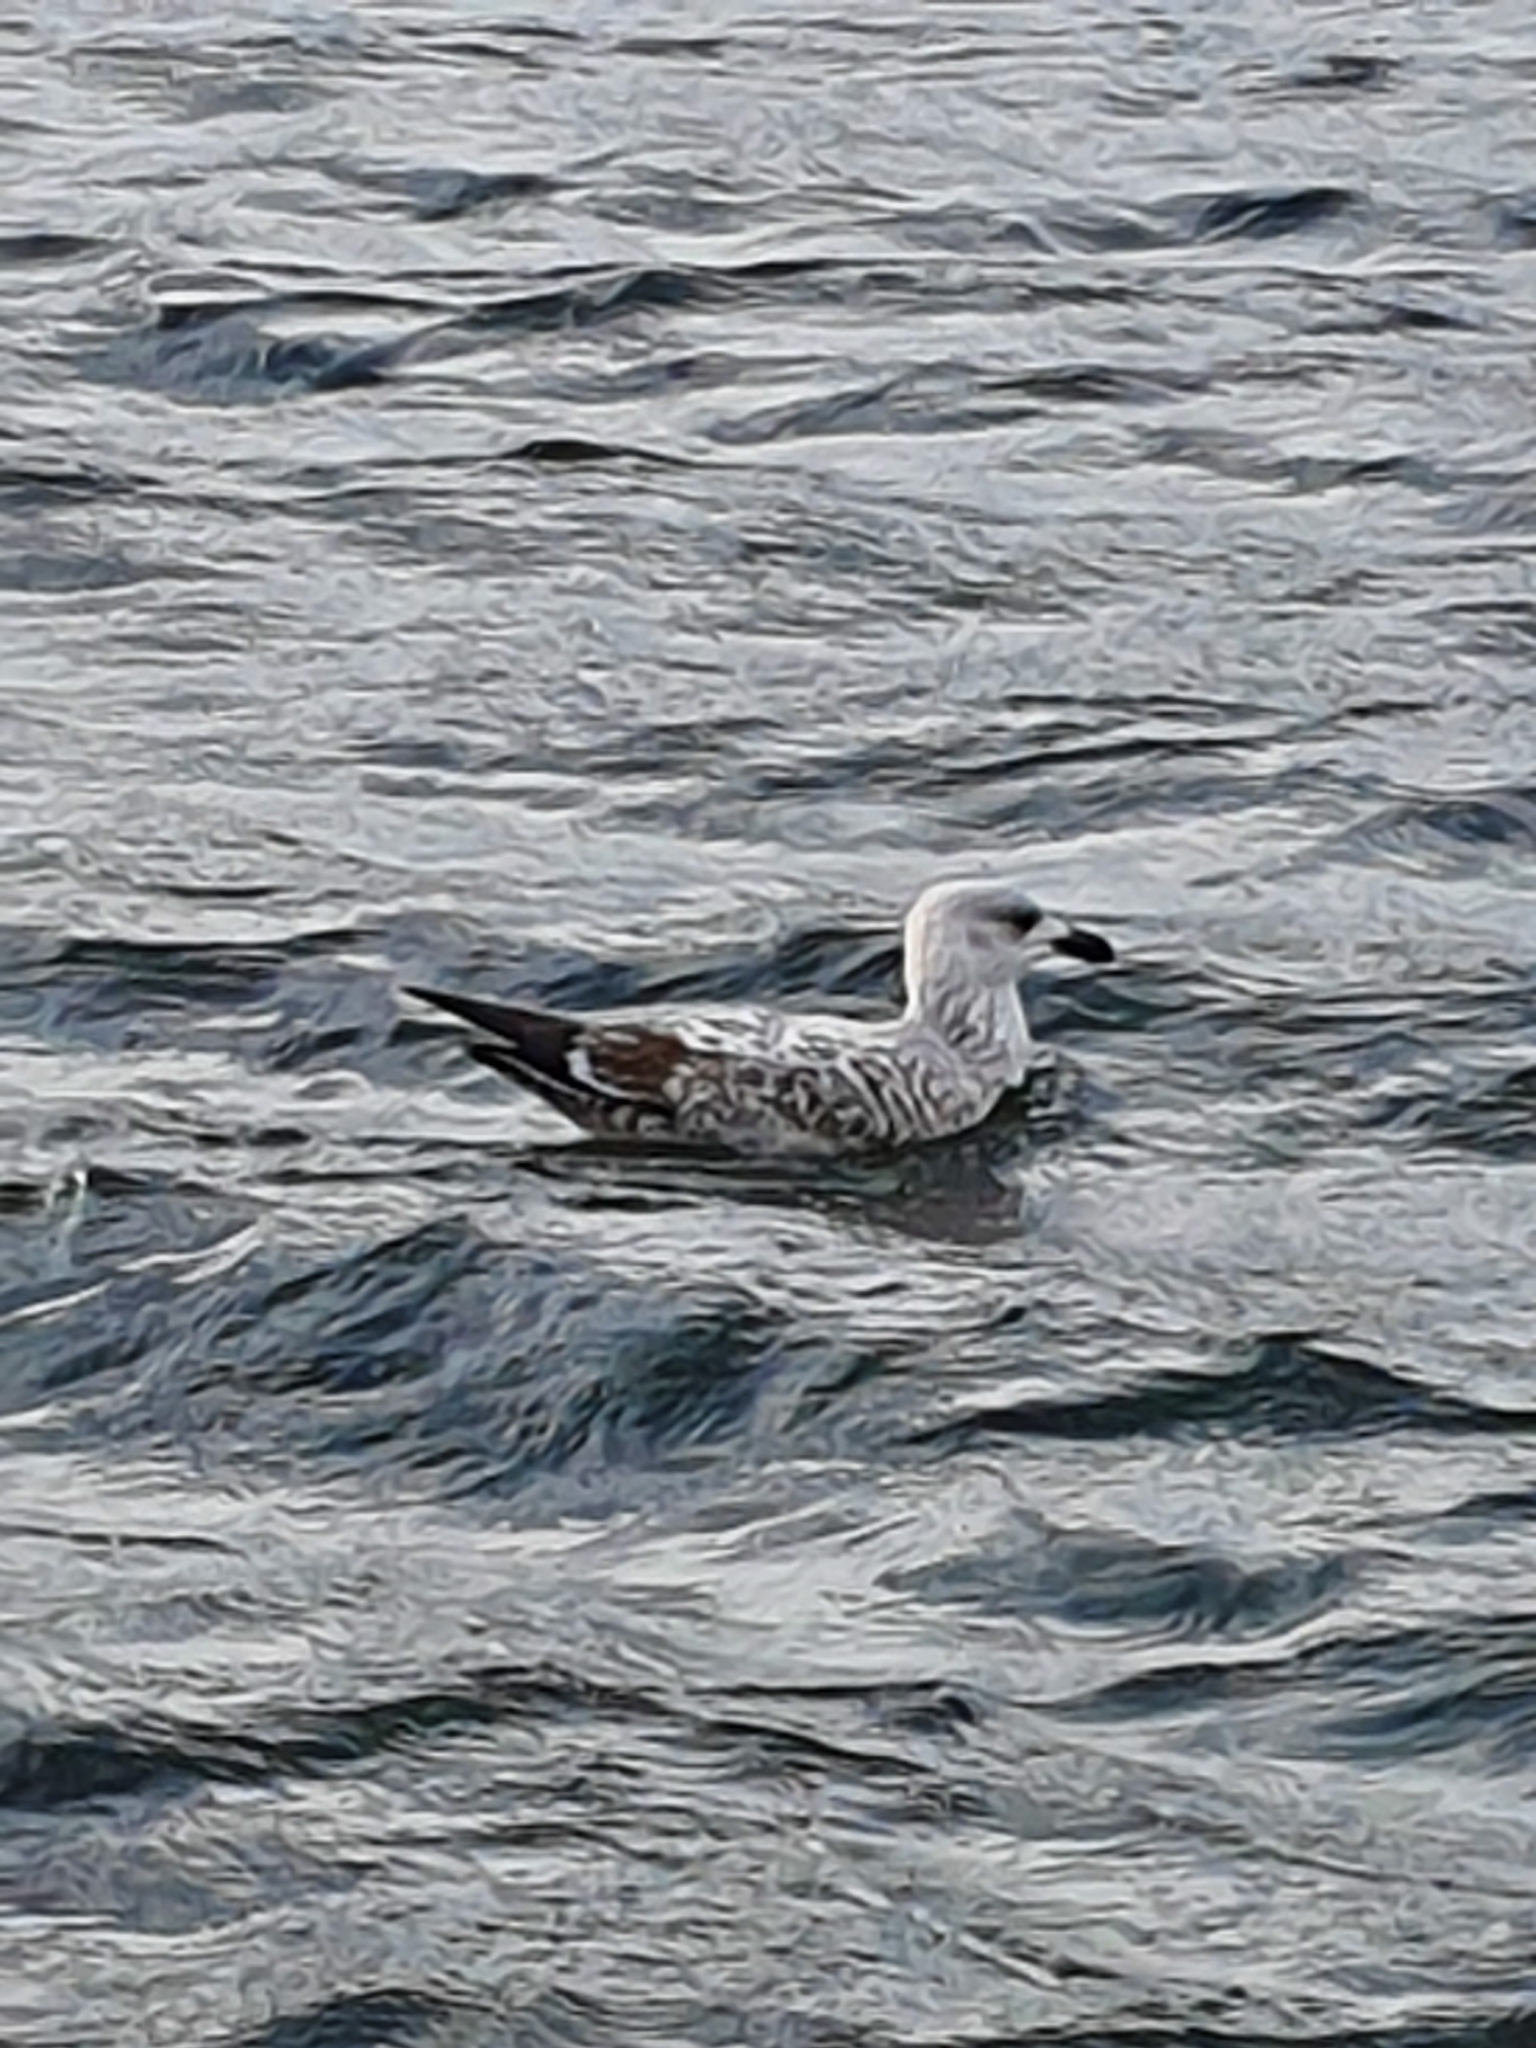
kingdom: Animalia
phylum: Chordata
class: Aves
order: Charadriiformes
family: Laridae
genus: Larus
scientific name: Larus argentatus
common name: Herring gull
